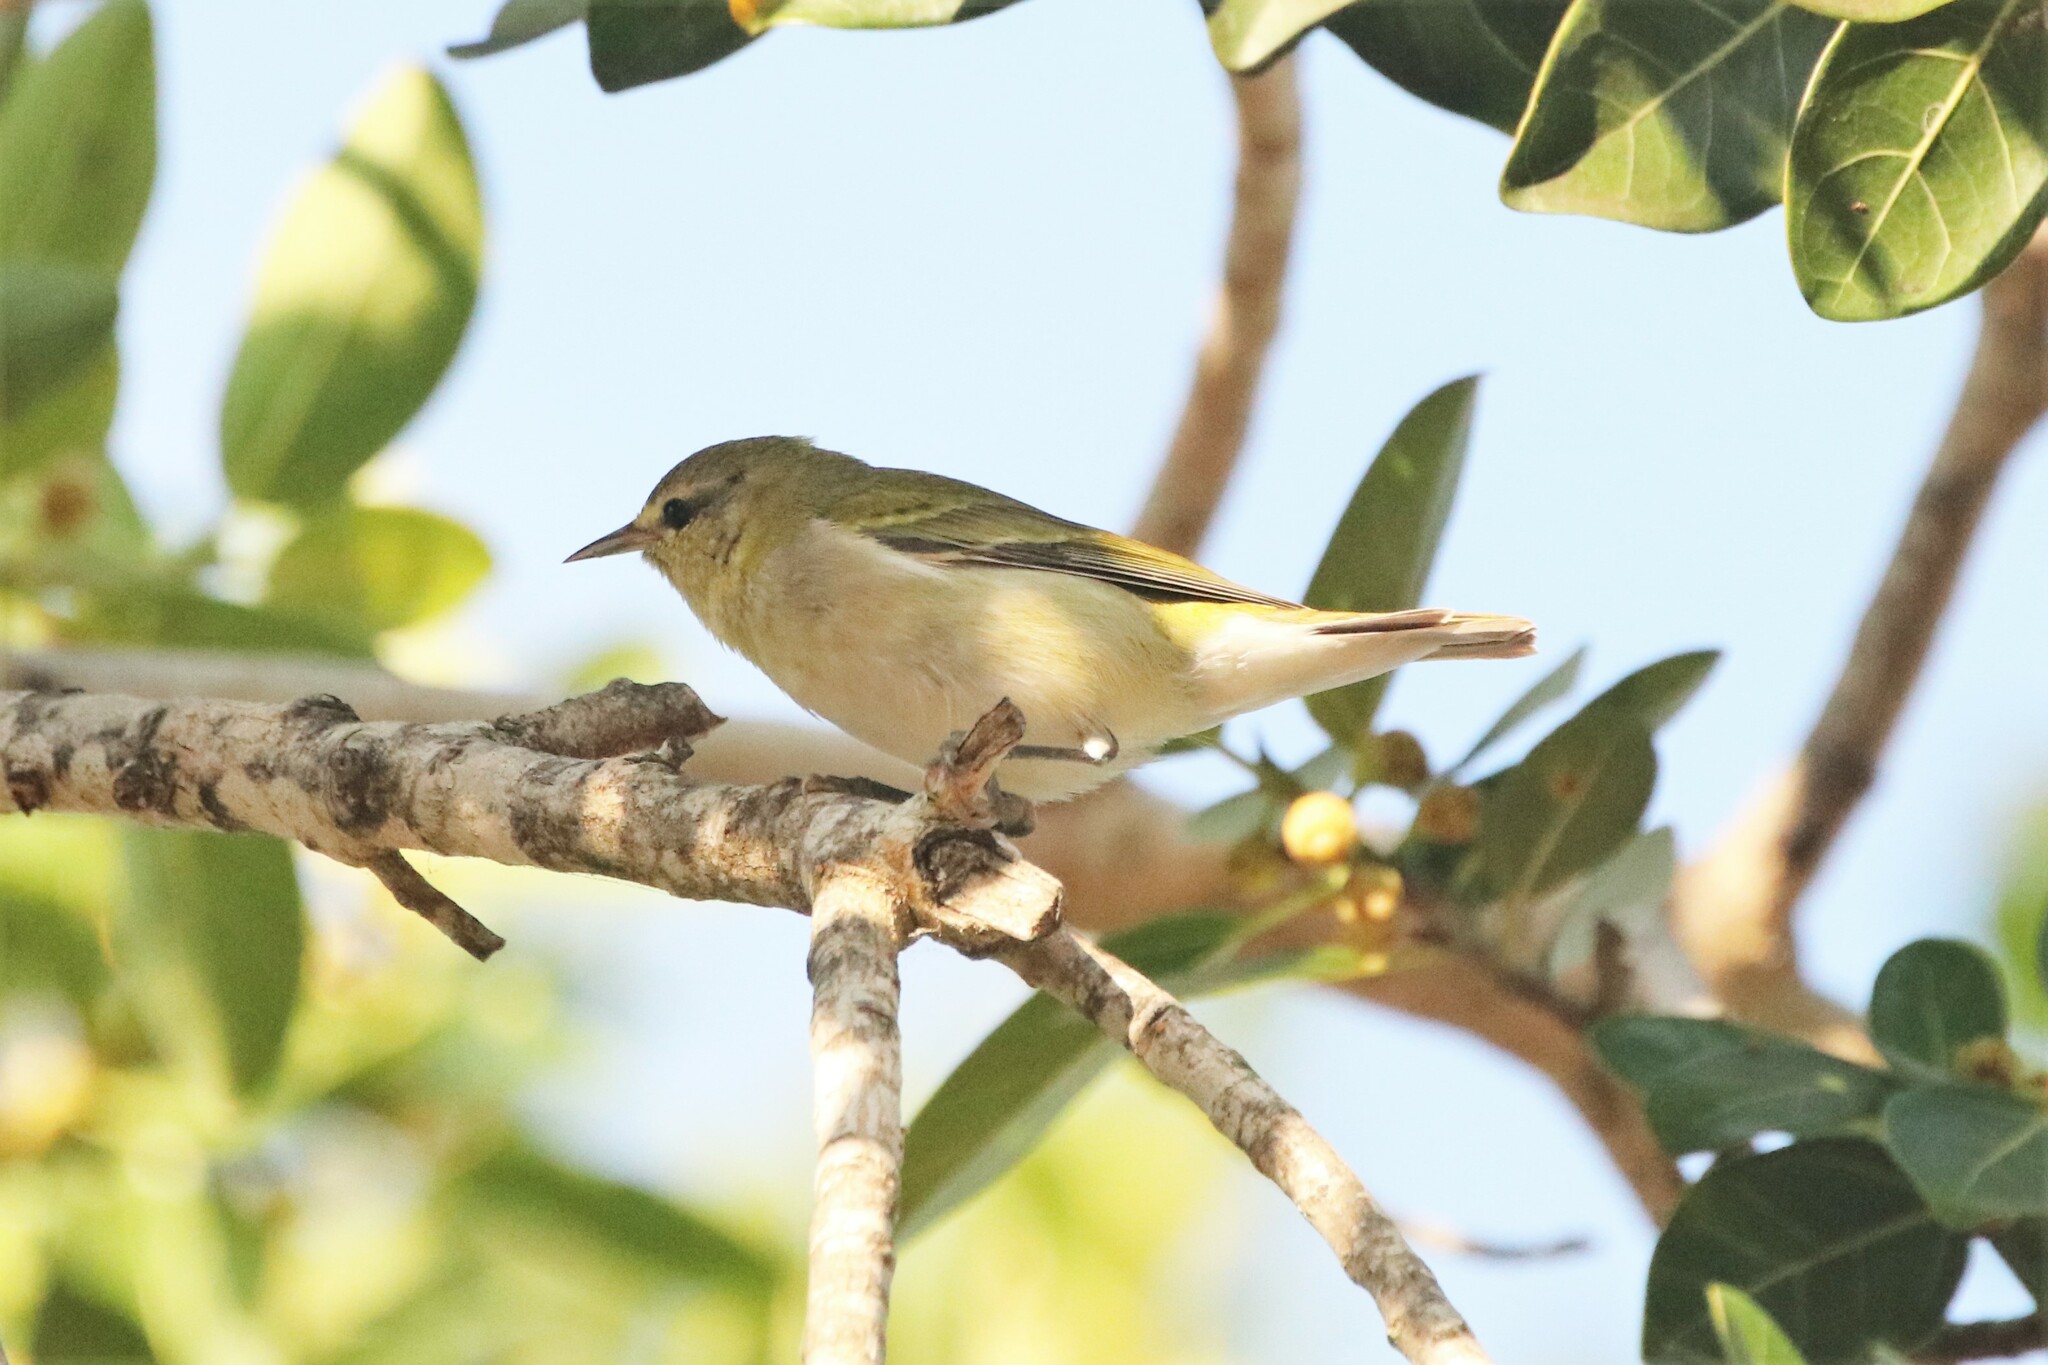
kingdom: Animalia
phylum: Chordata
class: Aves
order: Passeriformes
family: Parulidae
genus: Leiothlypis
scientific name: Leiothlypis peregrina
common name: Tennessee warbler
